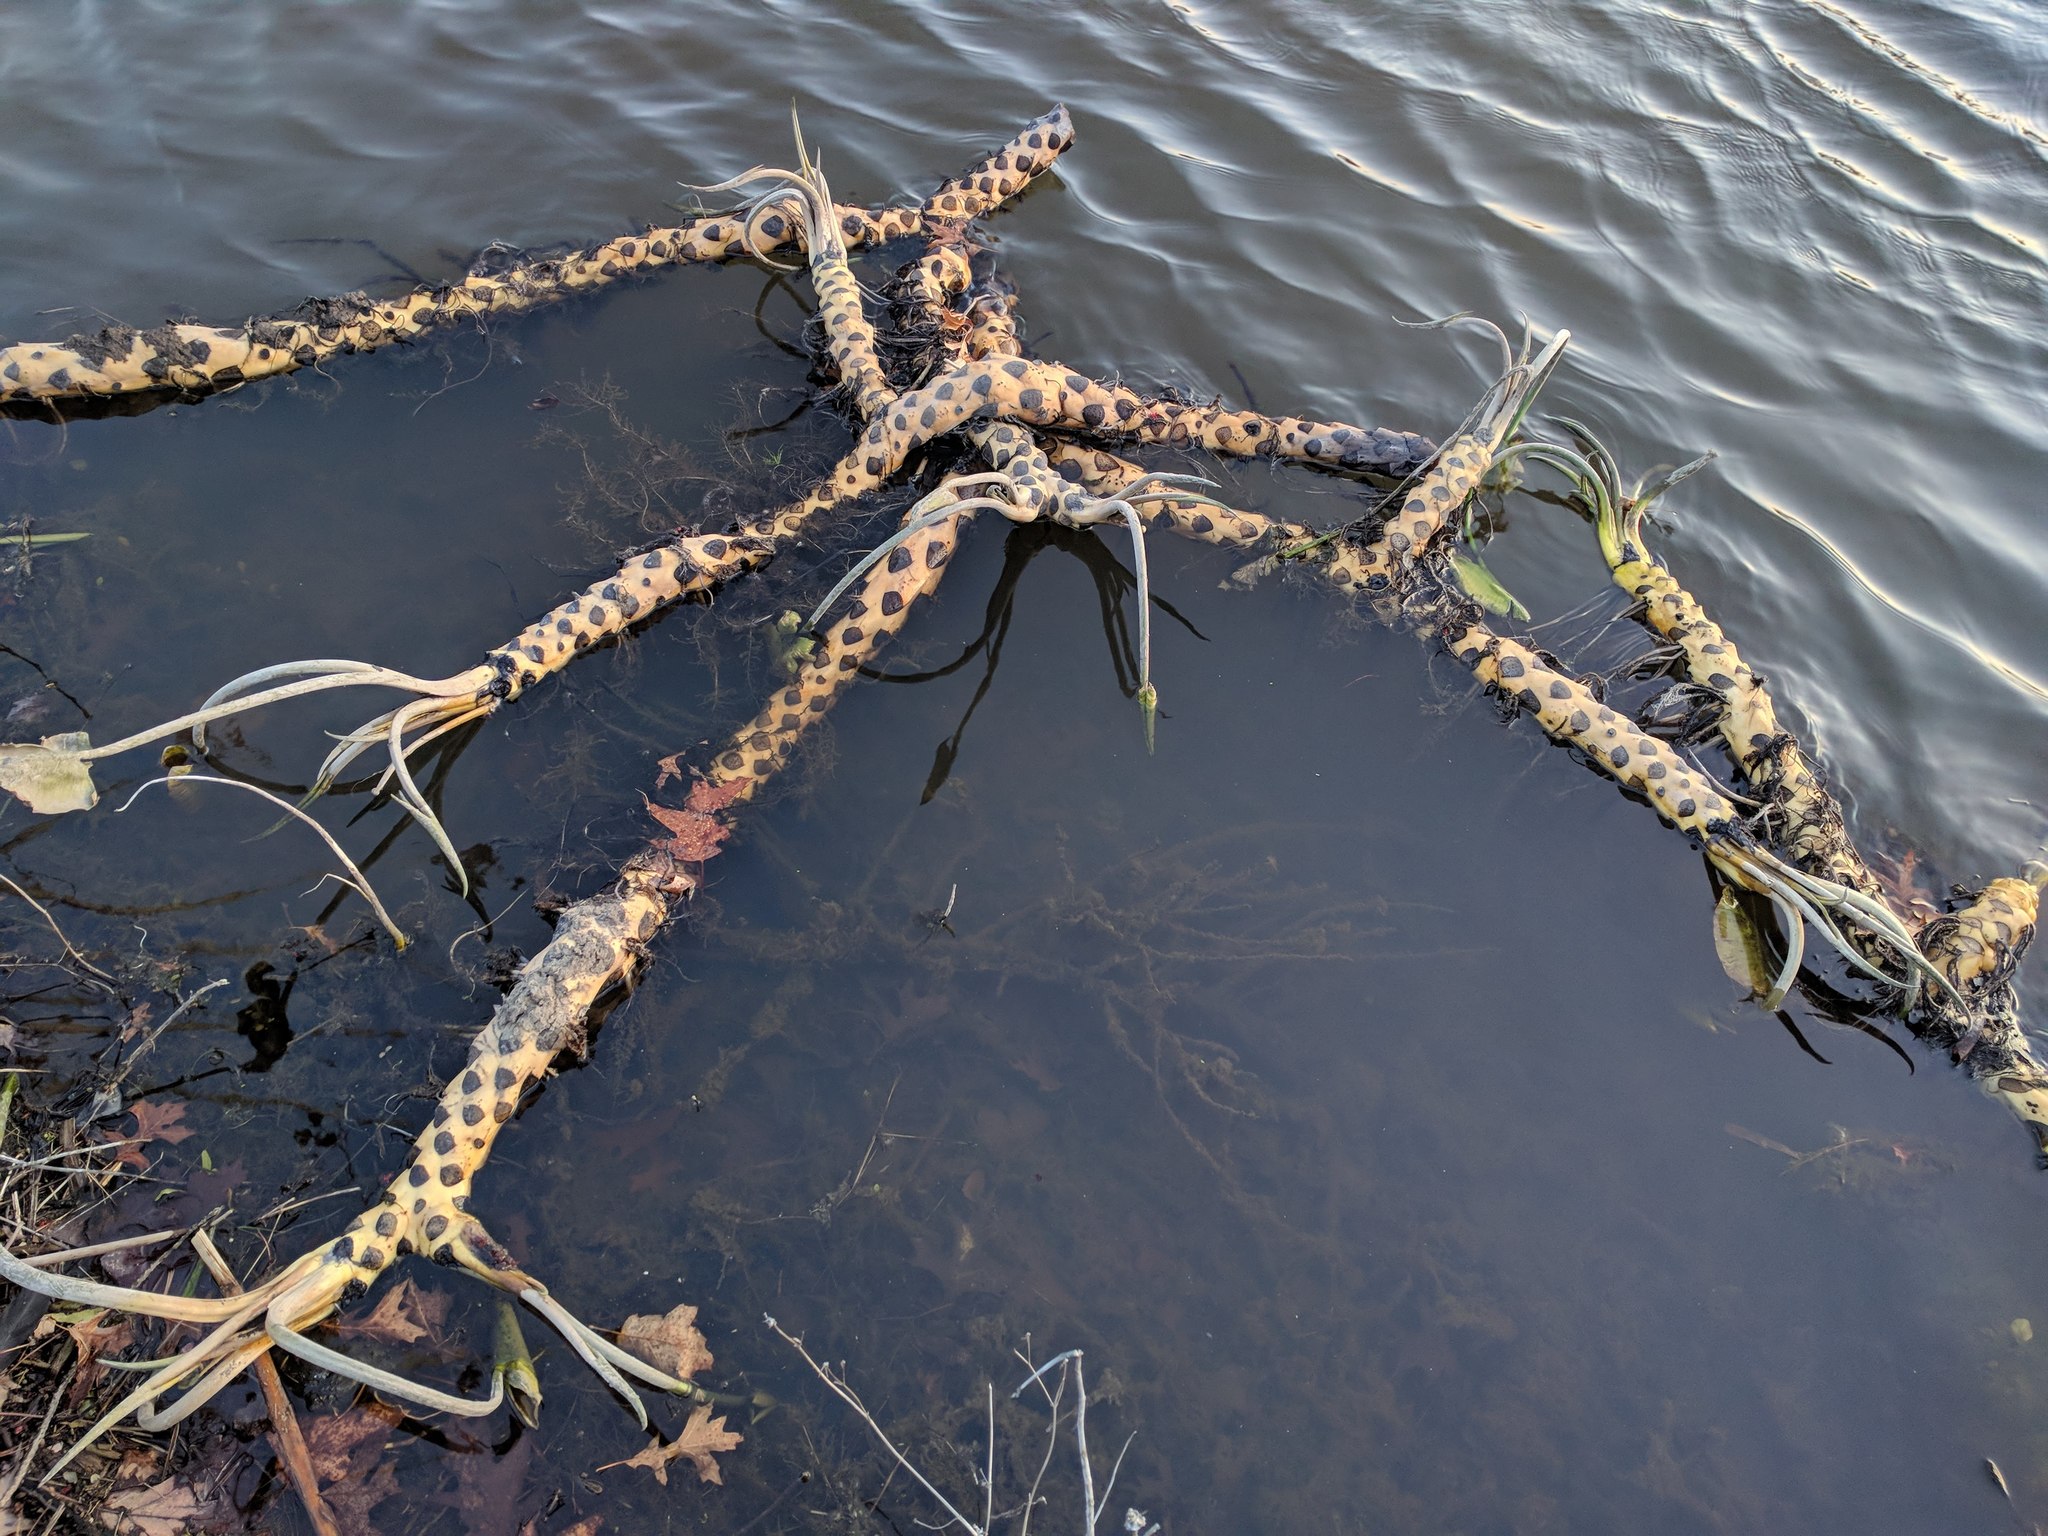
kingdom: Plantae
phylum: Tracheophyta
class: Magnoliopsida
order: Nymphaeales
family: Nymphaeaceae
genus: Nuphar
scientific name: Nuphar advena
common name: Spatter-dock
